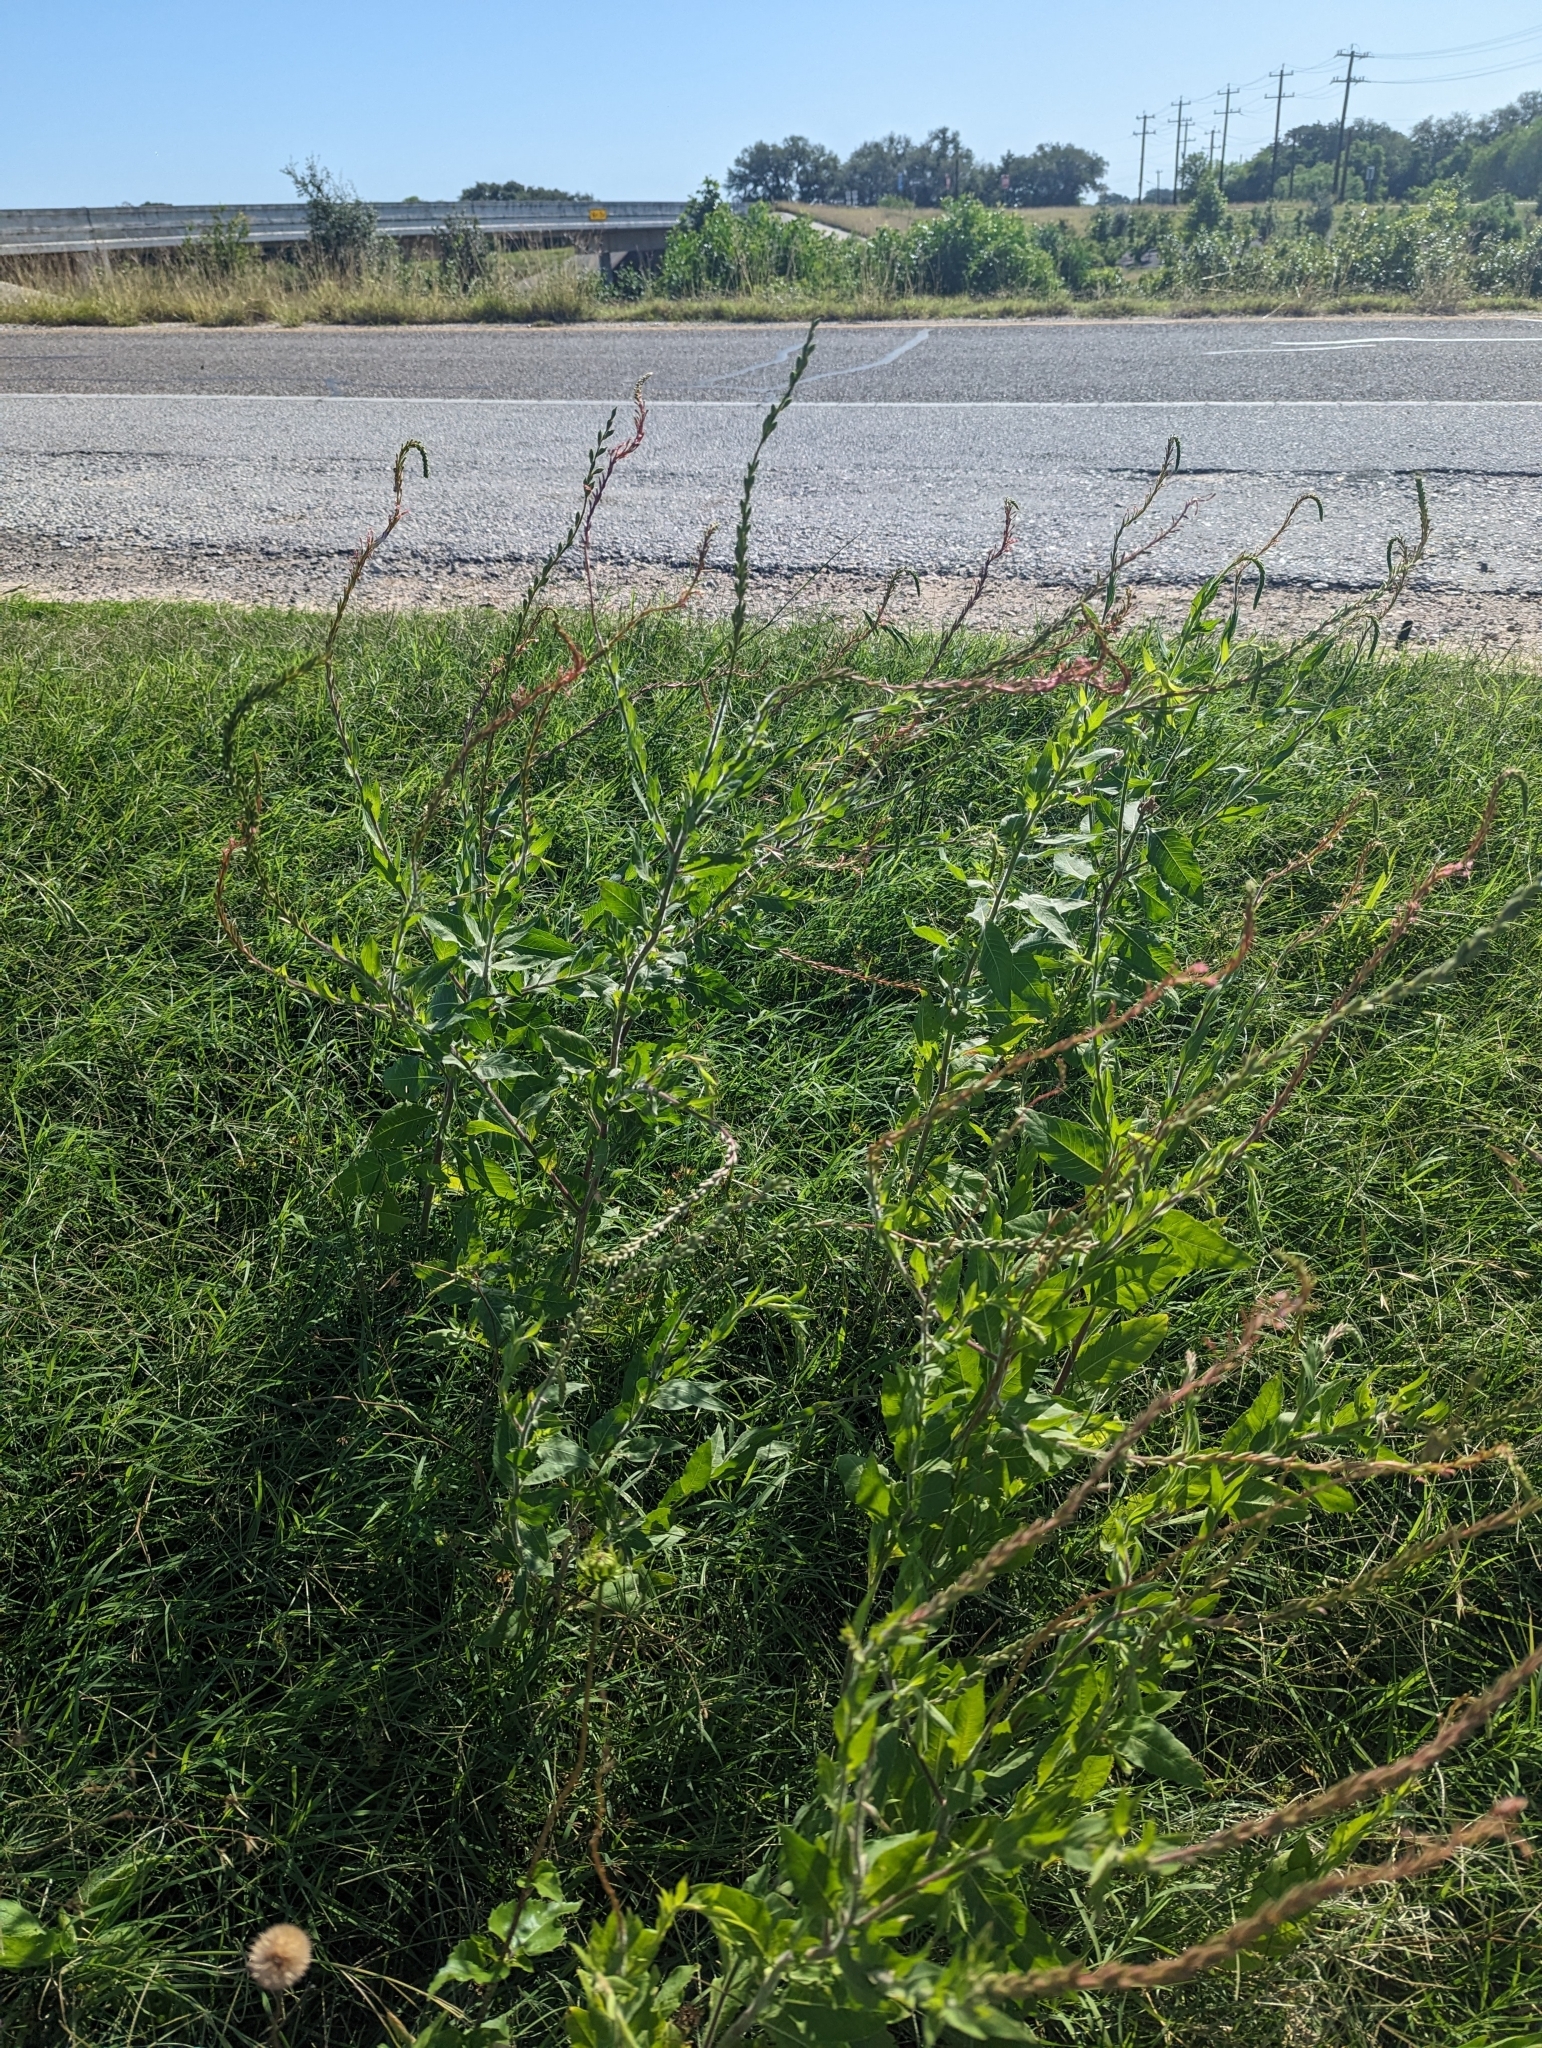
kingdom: Plantae
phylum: Tracheophyta
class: Magnoliopsida
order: Myrtales
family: Onagraceae
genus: Oenothera
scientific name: Oenothera curtiflora
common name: Velvetweed
